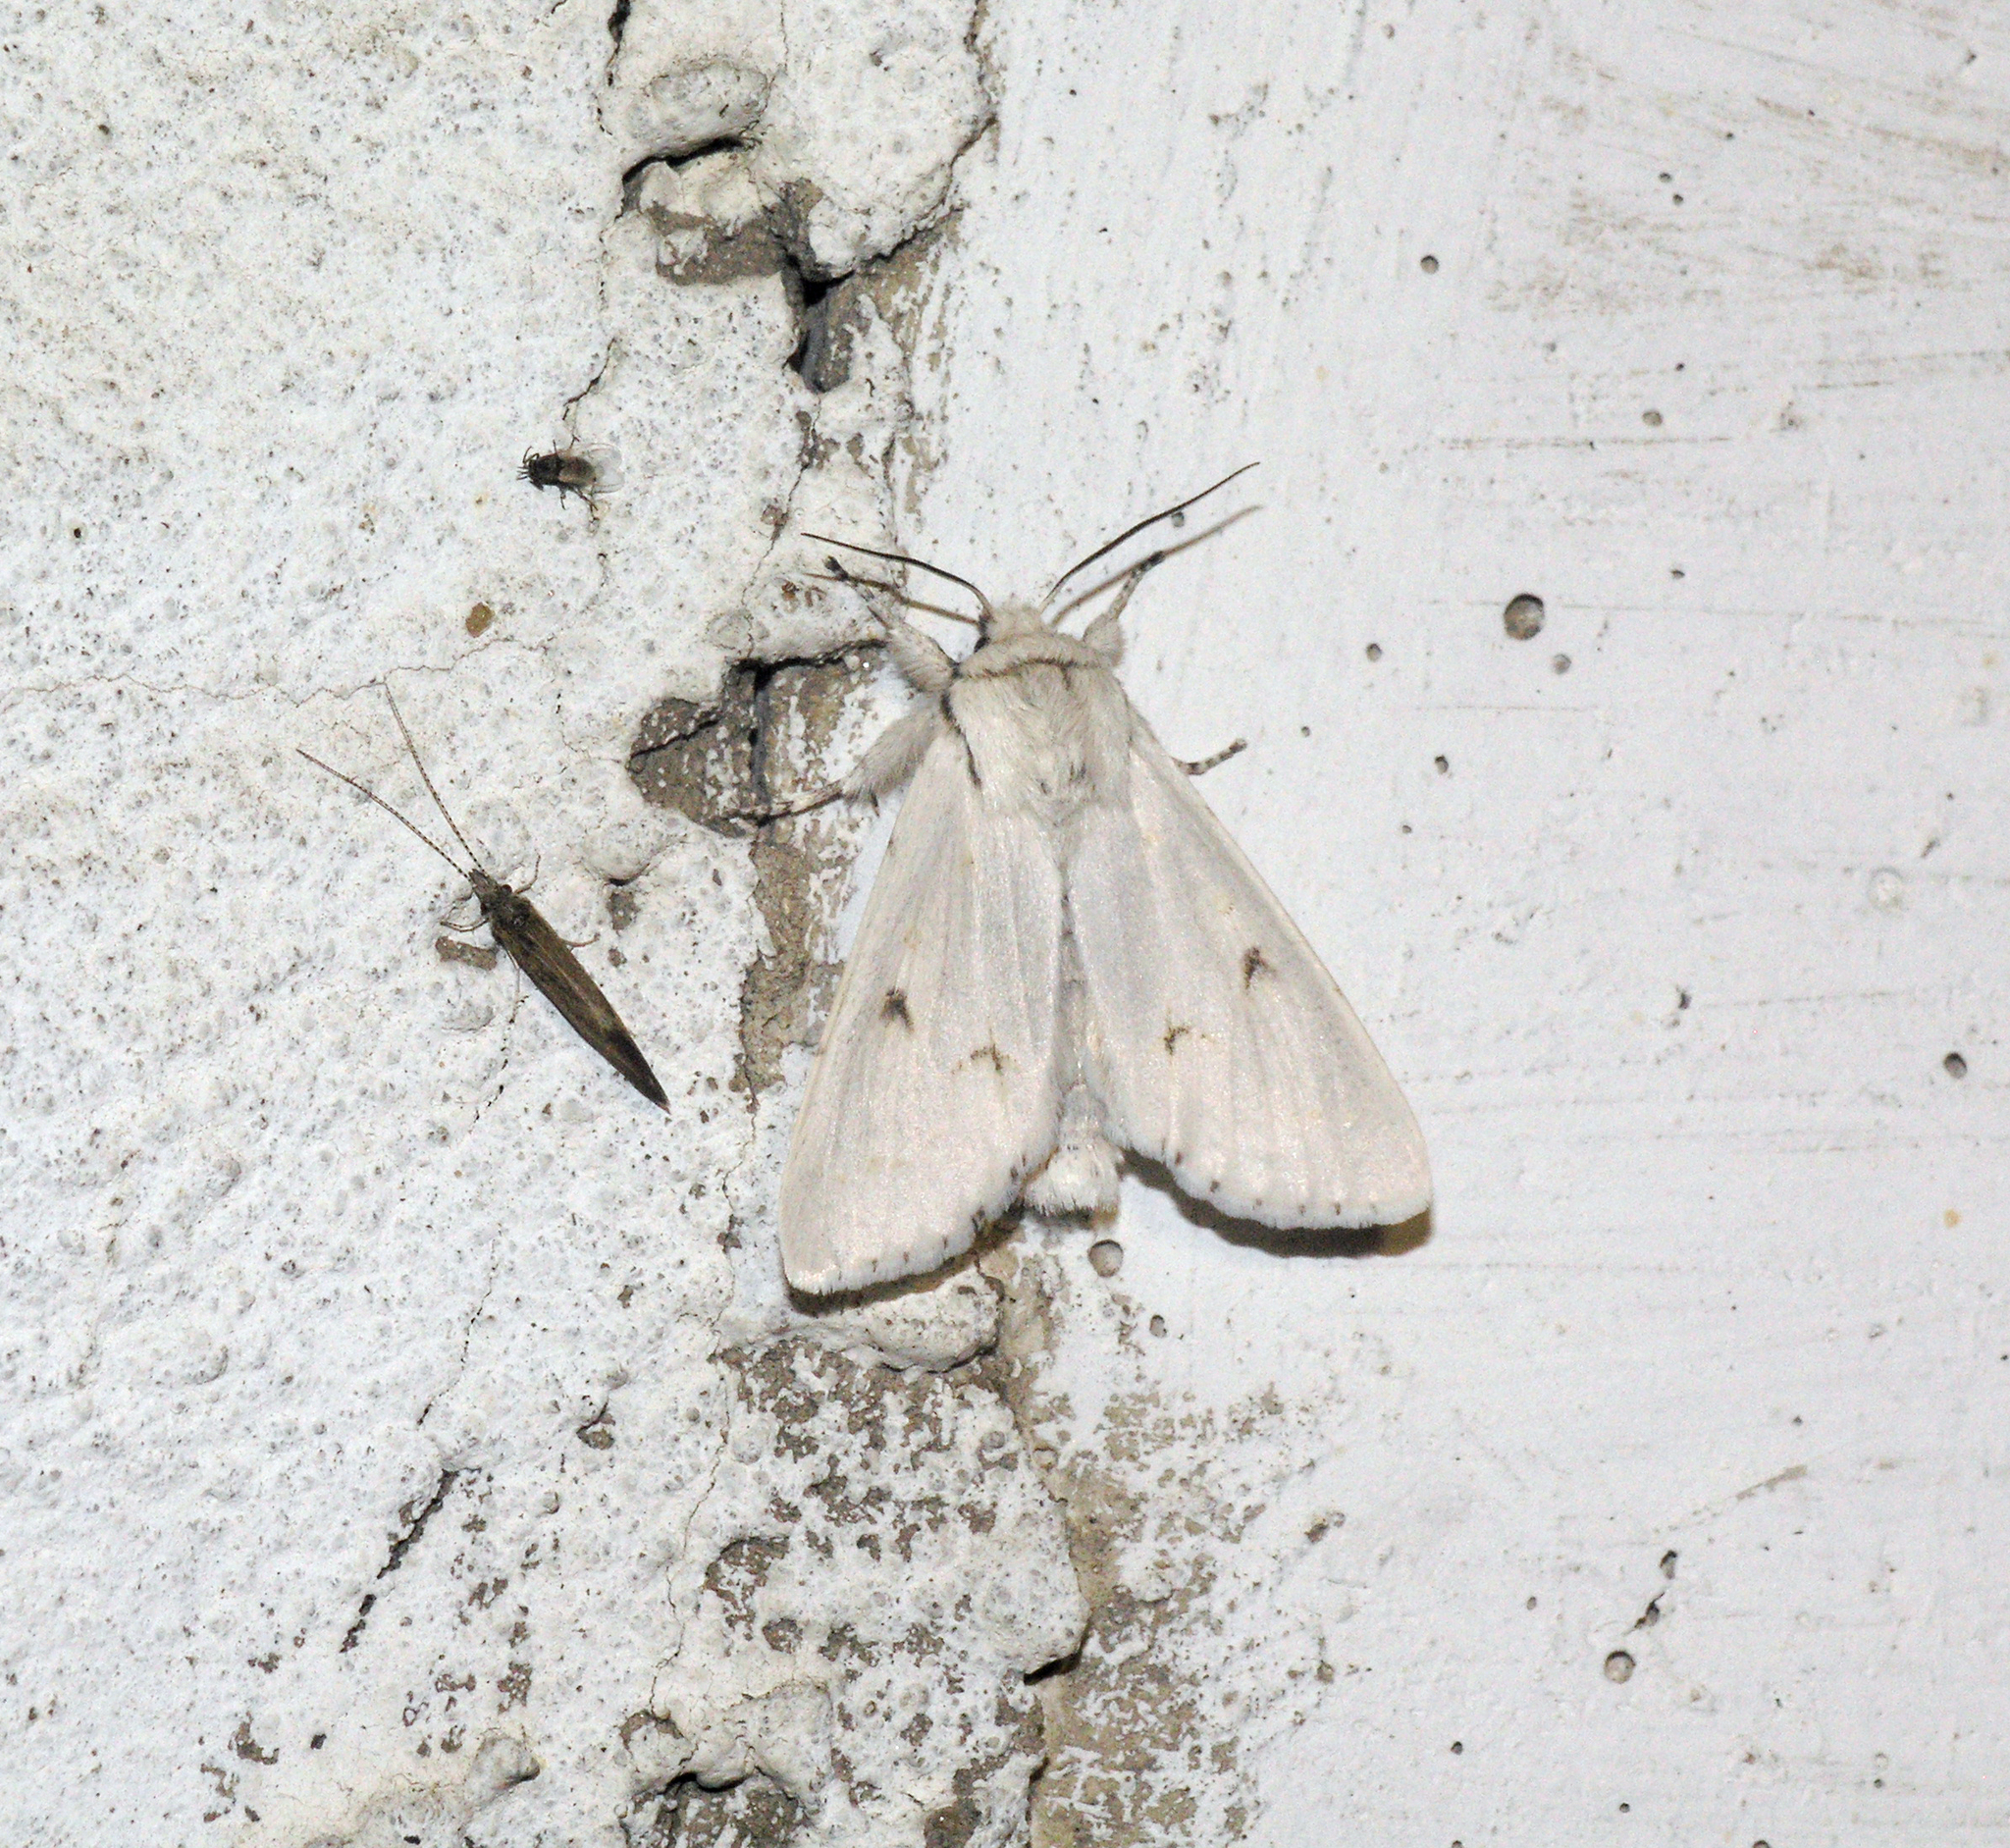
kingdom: Animalia
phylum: Arthropoda
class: Insecta
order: Lepidoptera
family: Noctuidae
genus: Acronicta
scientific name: Acronicta vulpina
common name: Miller dagger
